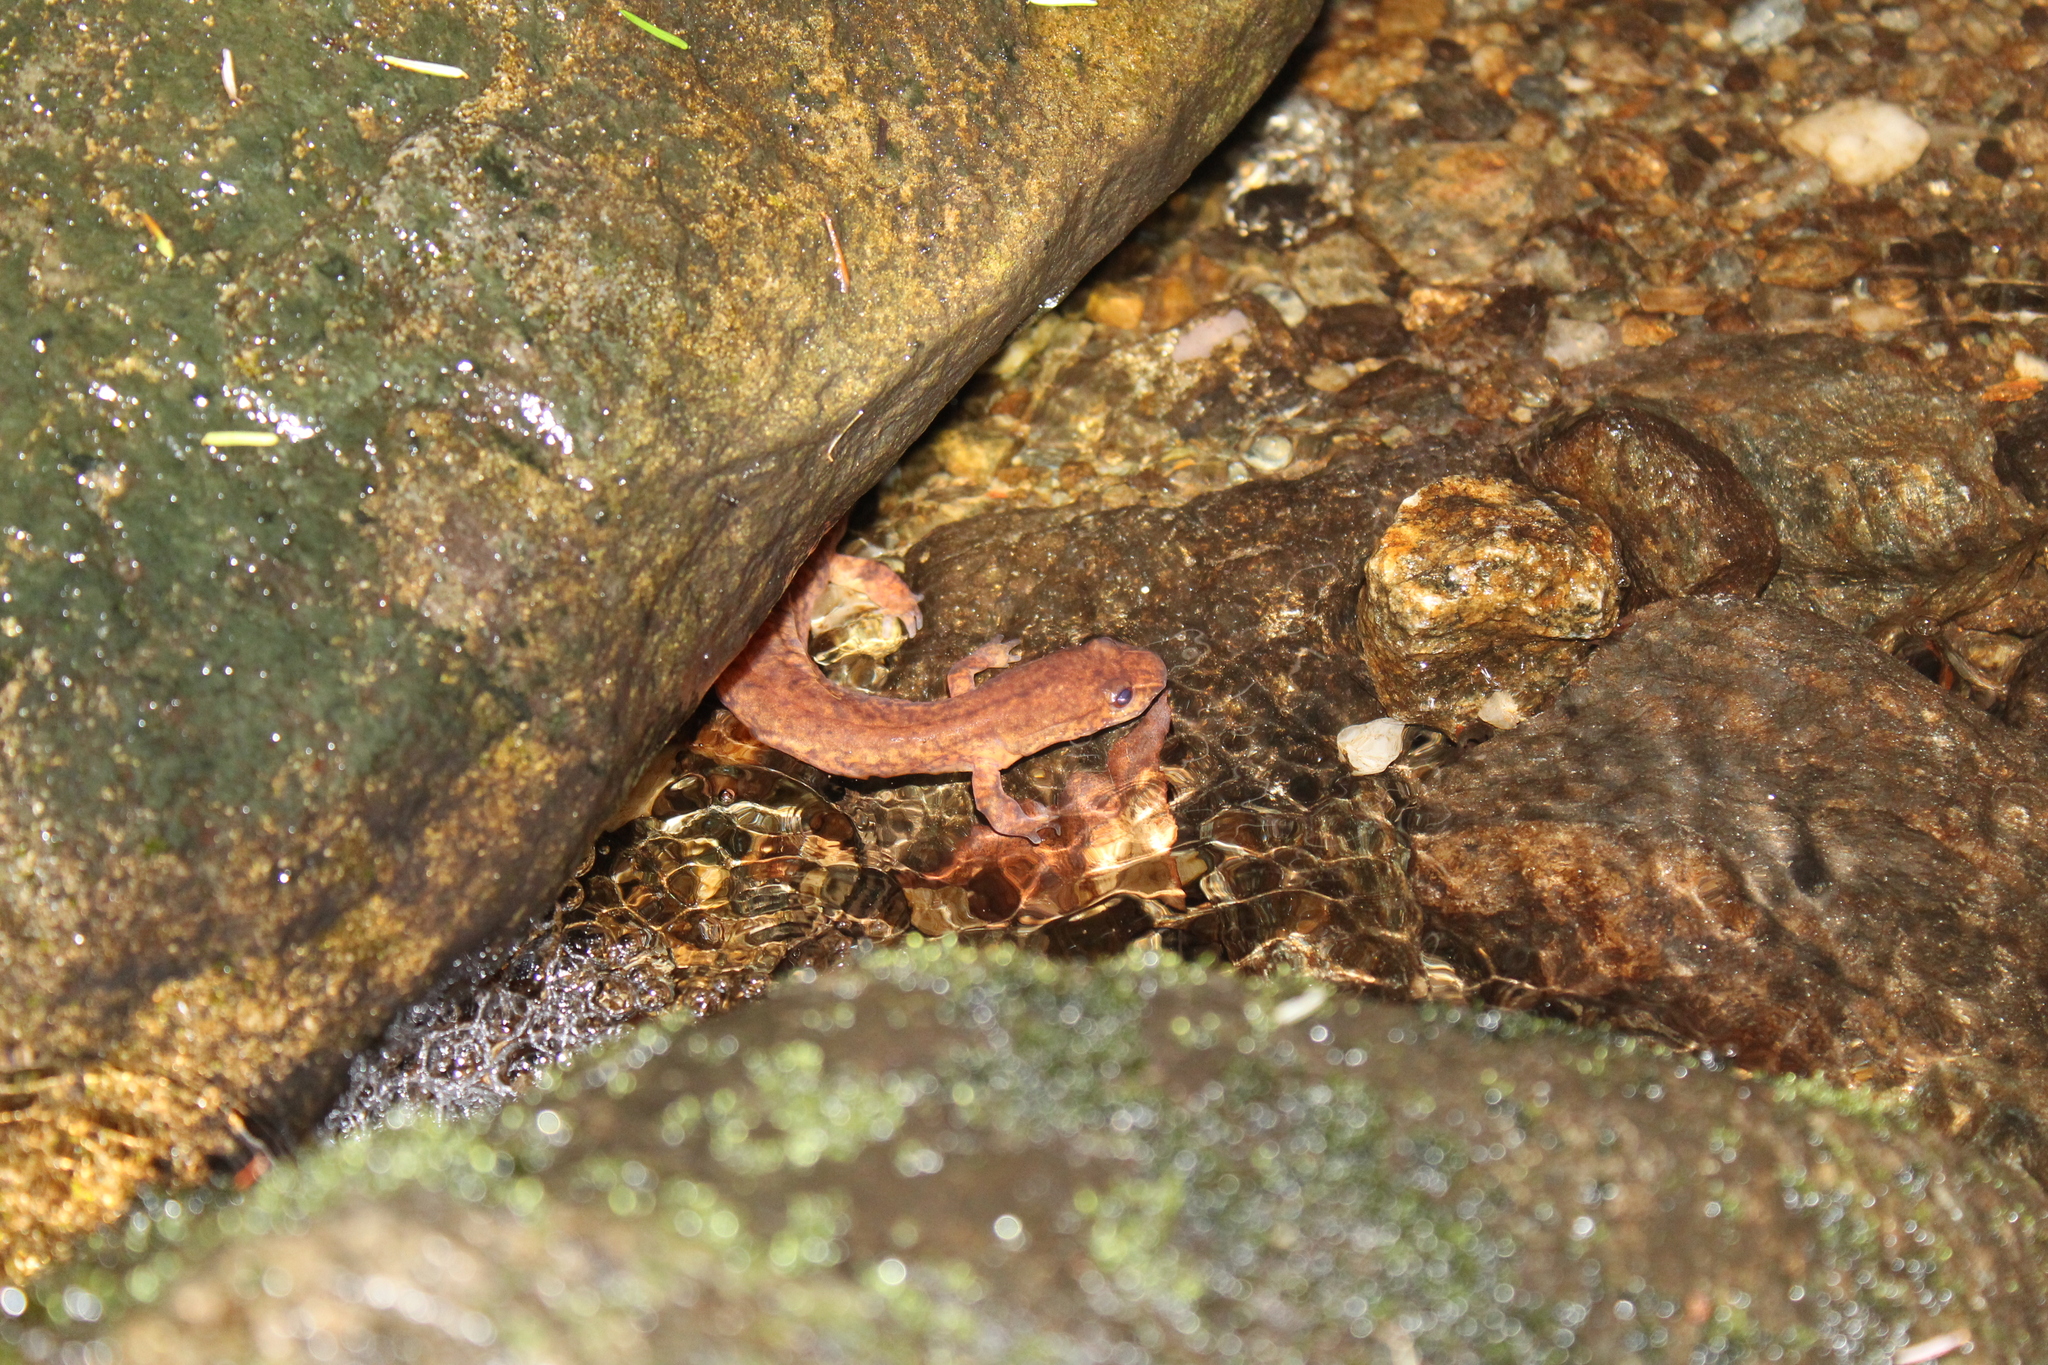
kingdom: Animalia
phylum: Chordata
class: Amphibia
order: Caudata
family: Plethodontidae
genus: Gyrinophilus
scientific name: Gyrinophilus porphyriticus
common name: Spring salamander
